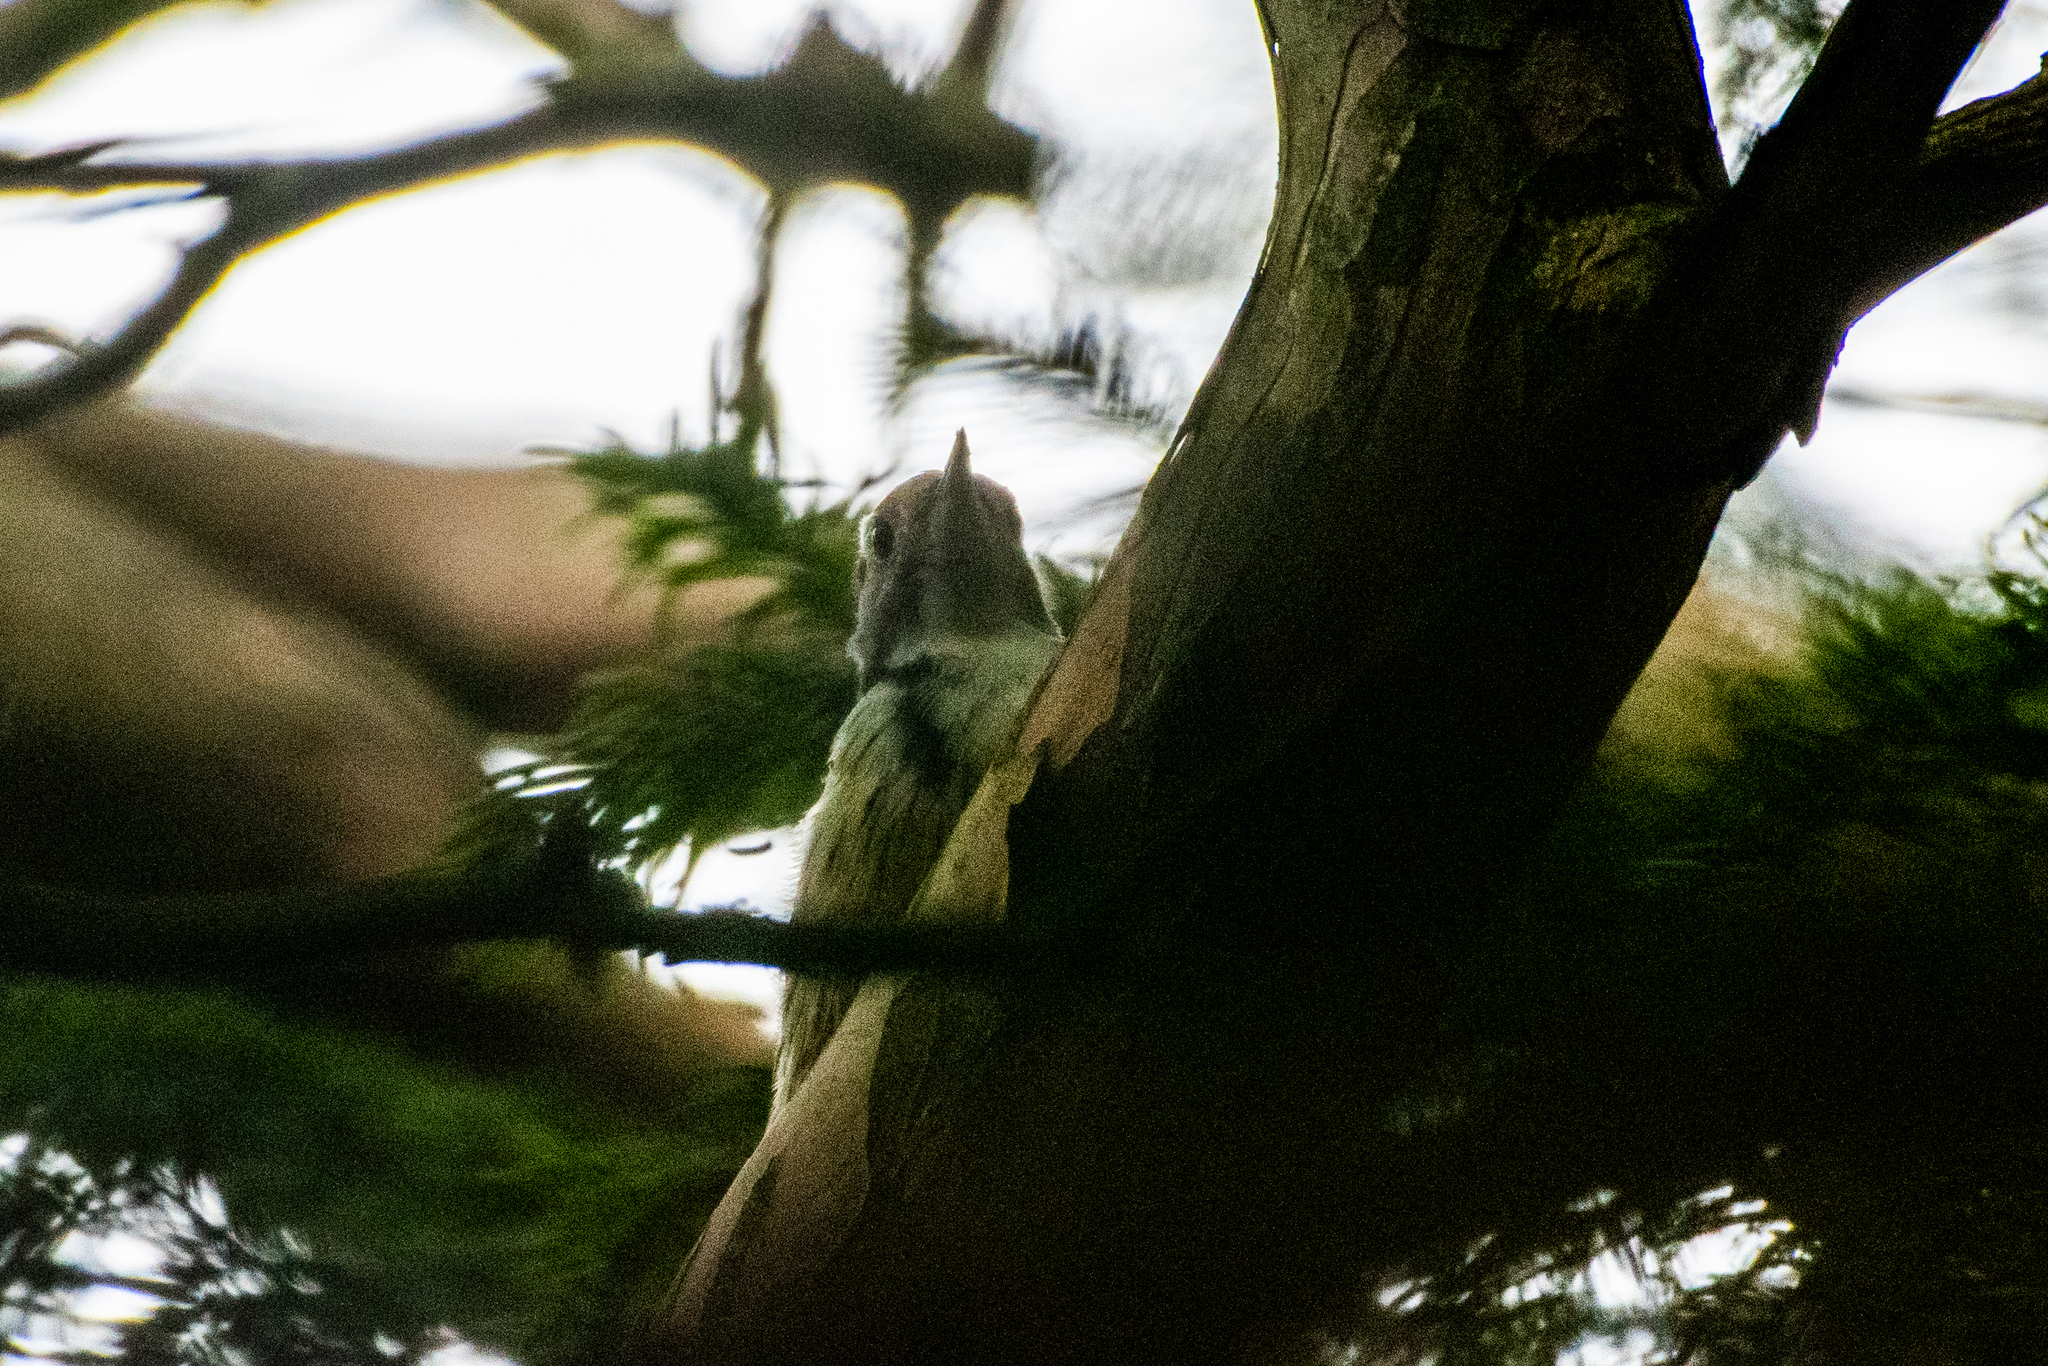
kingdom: Animalia
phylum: Chordata
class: Aves
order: Piciformes
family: Picidae
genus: Dendrocoptes
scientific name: Dendrocoptes medius
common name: Middle spotted woodpecker
